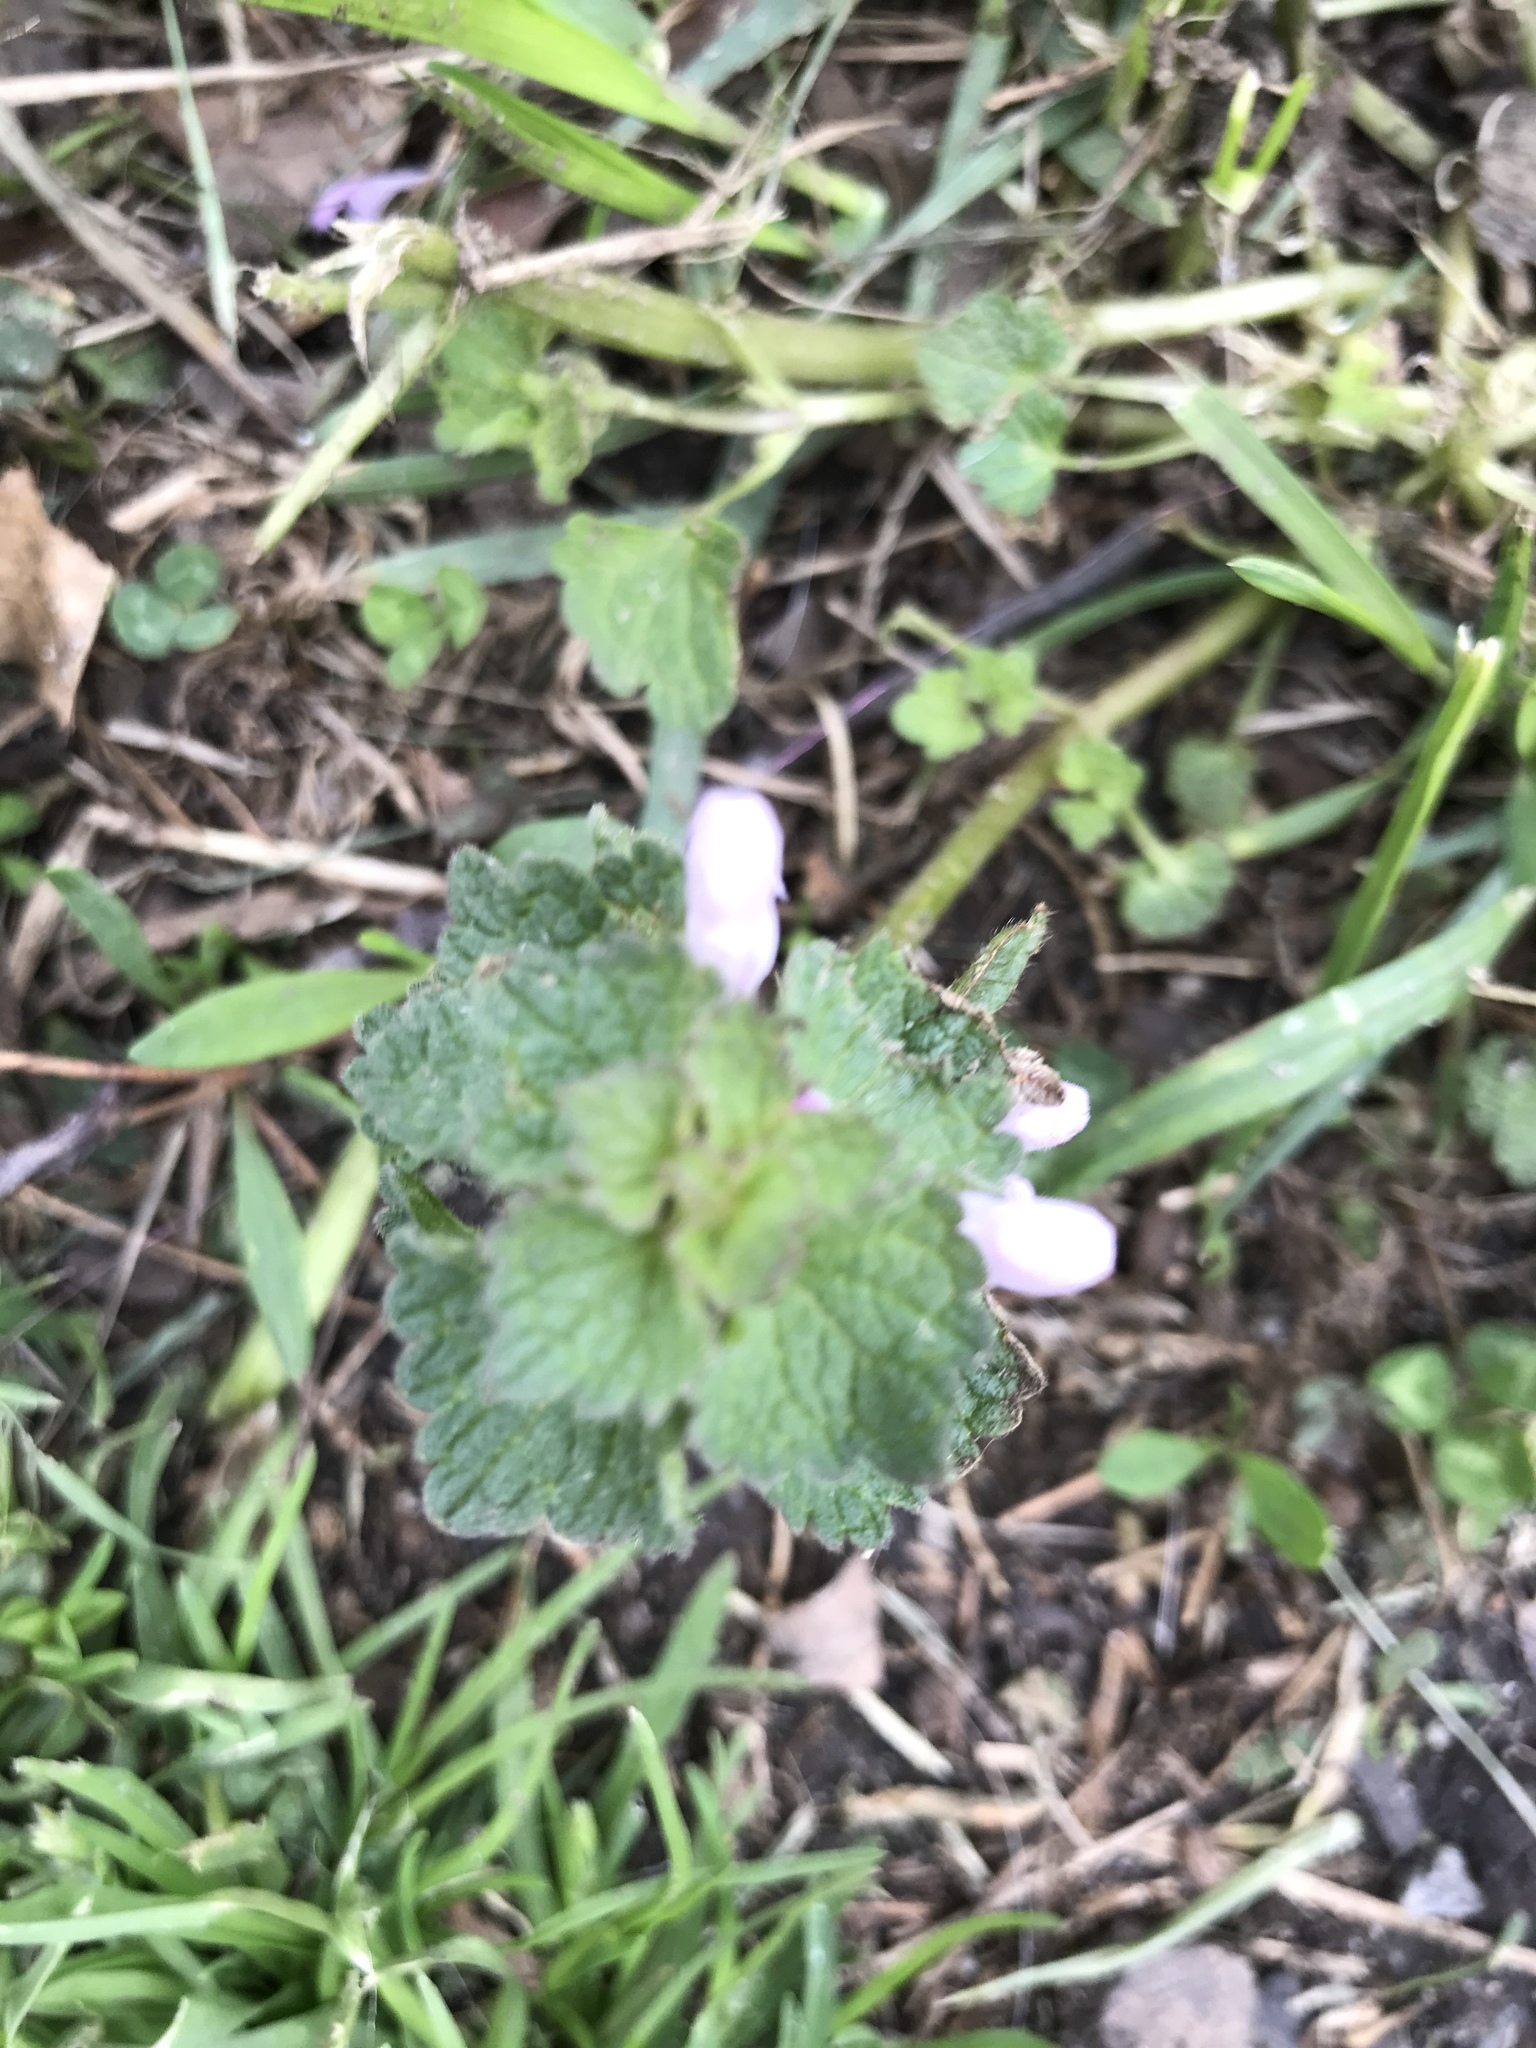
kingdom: Plantae
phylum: Tracheophyta
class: Magnoliopsida
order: Lamiales
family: Lamiaceae
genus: Lamium
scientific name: Lamium purpureum
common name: Red dead-nettle
